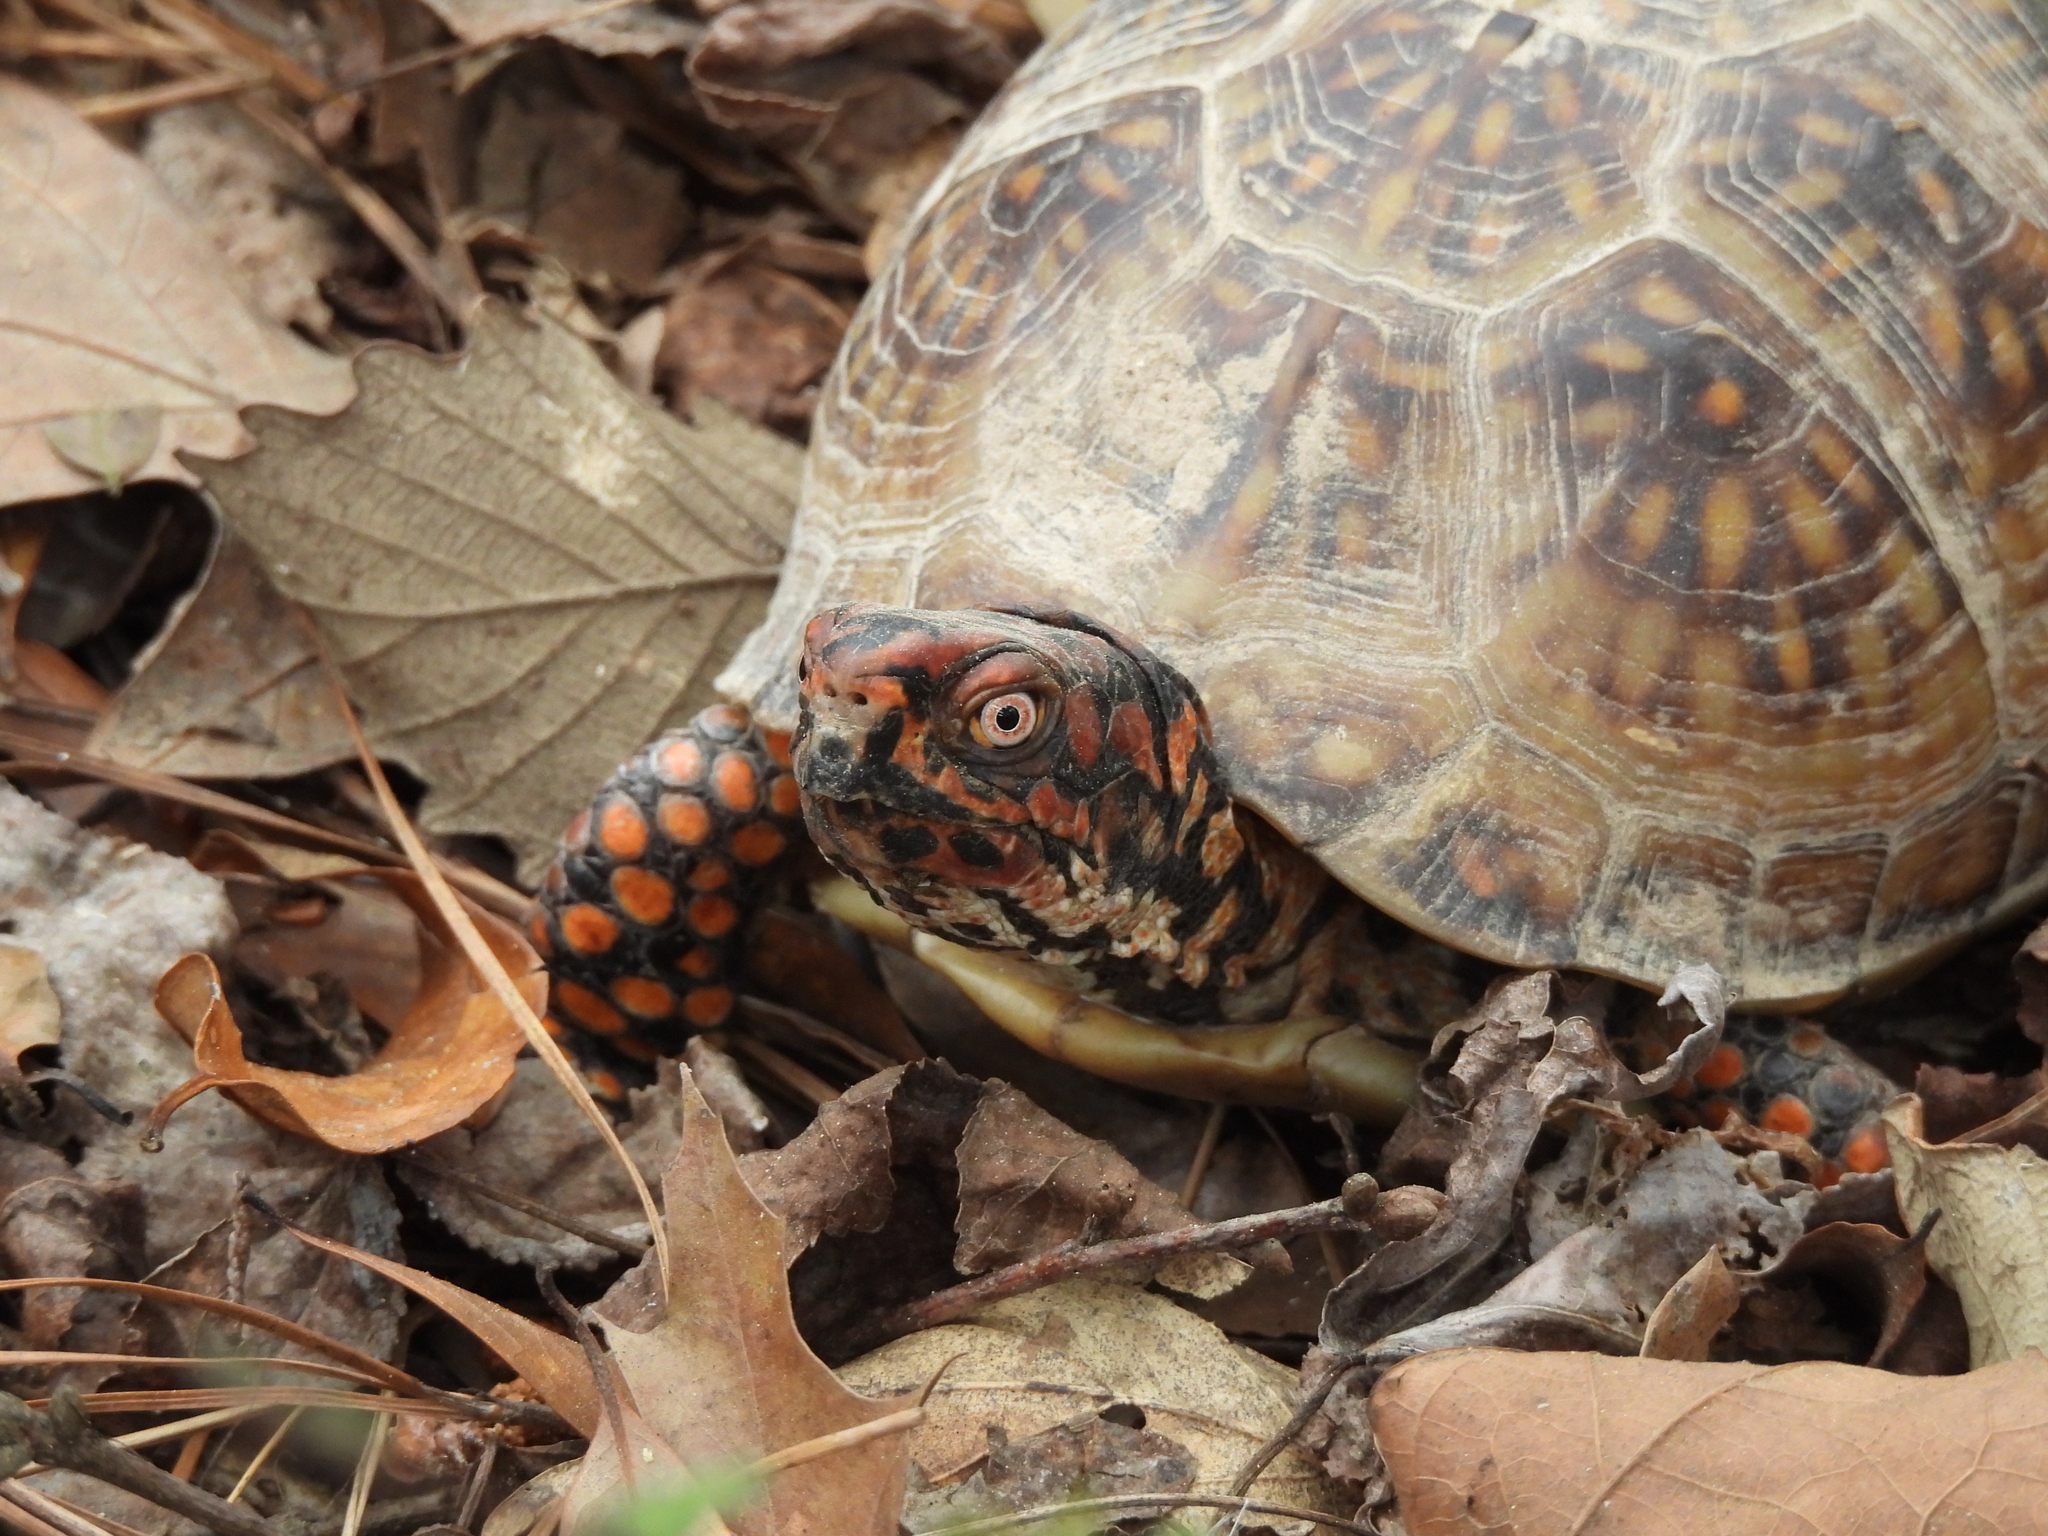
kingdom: Animalia
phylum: Chordata
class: Testudines
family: Emydidae
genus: Terrapene
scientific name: Terrapene carolina
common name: Common box turtle
